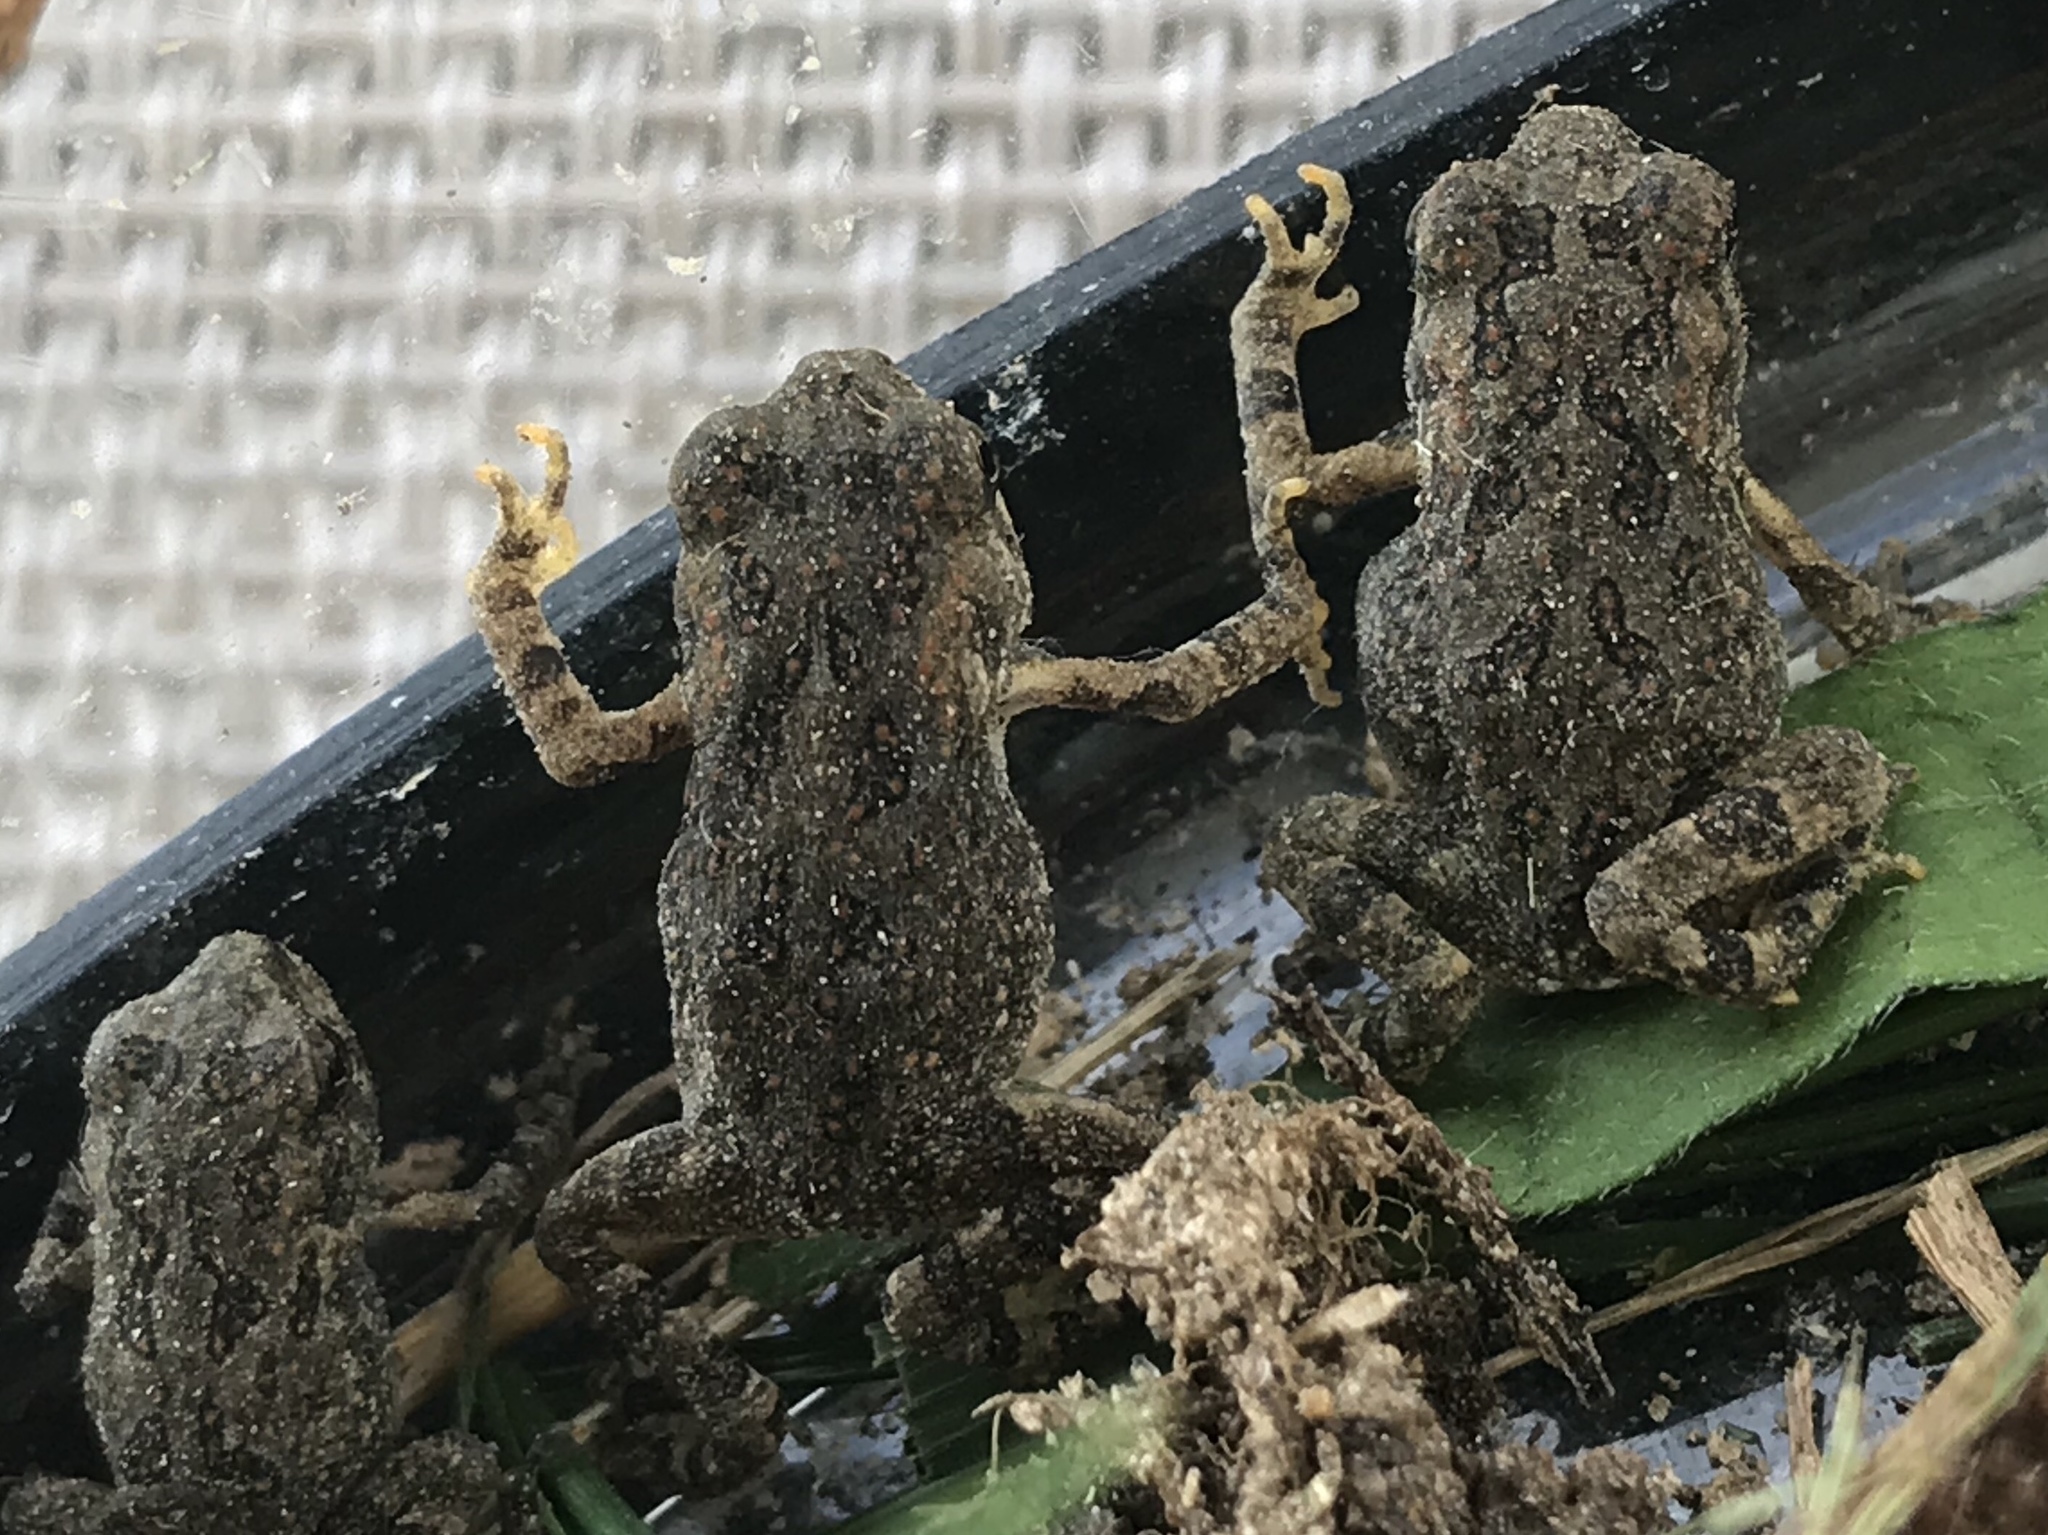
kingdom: Animalia
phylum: Chordata
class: Amphibia
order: Anura
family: Bufonidae
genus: Anaxyrus
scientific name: Anaxyrus fowleri
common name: Fowler's toad
